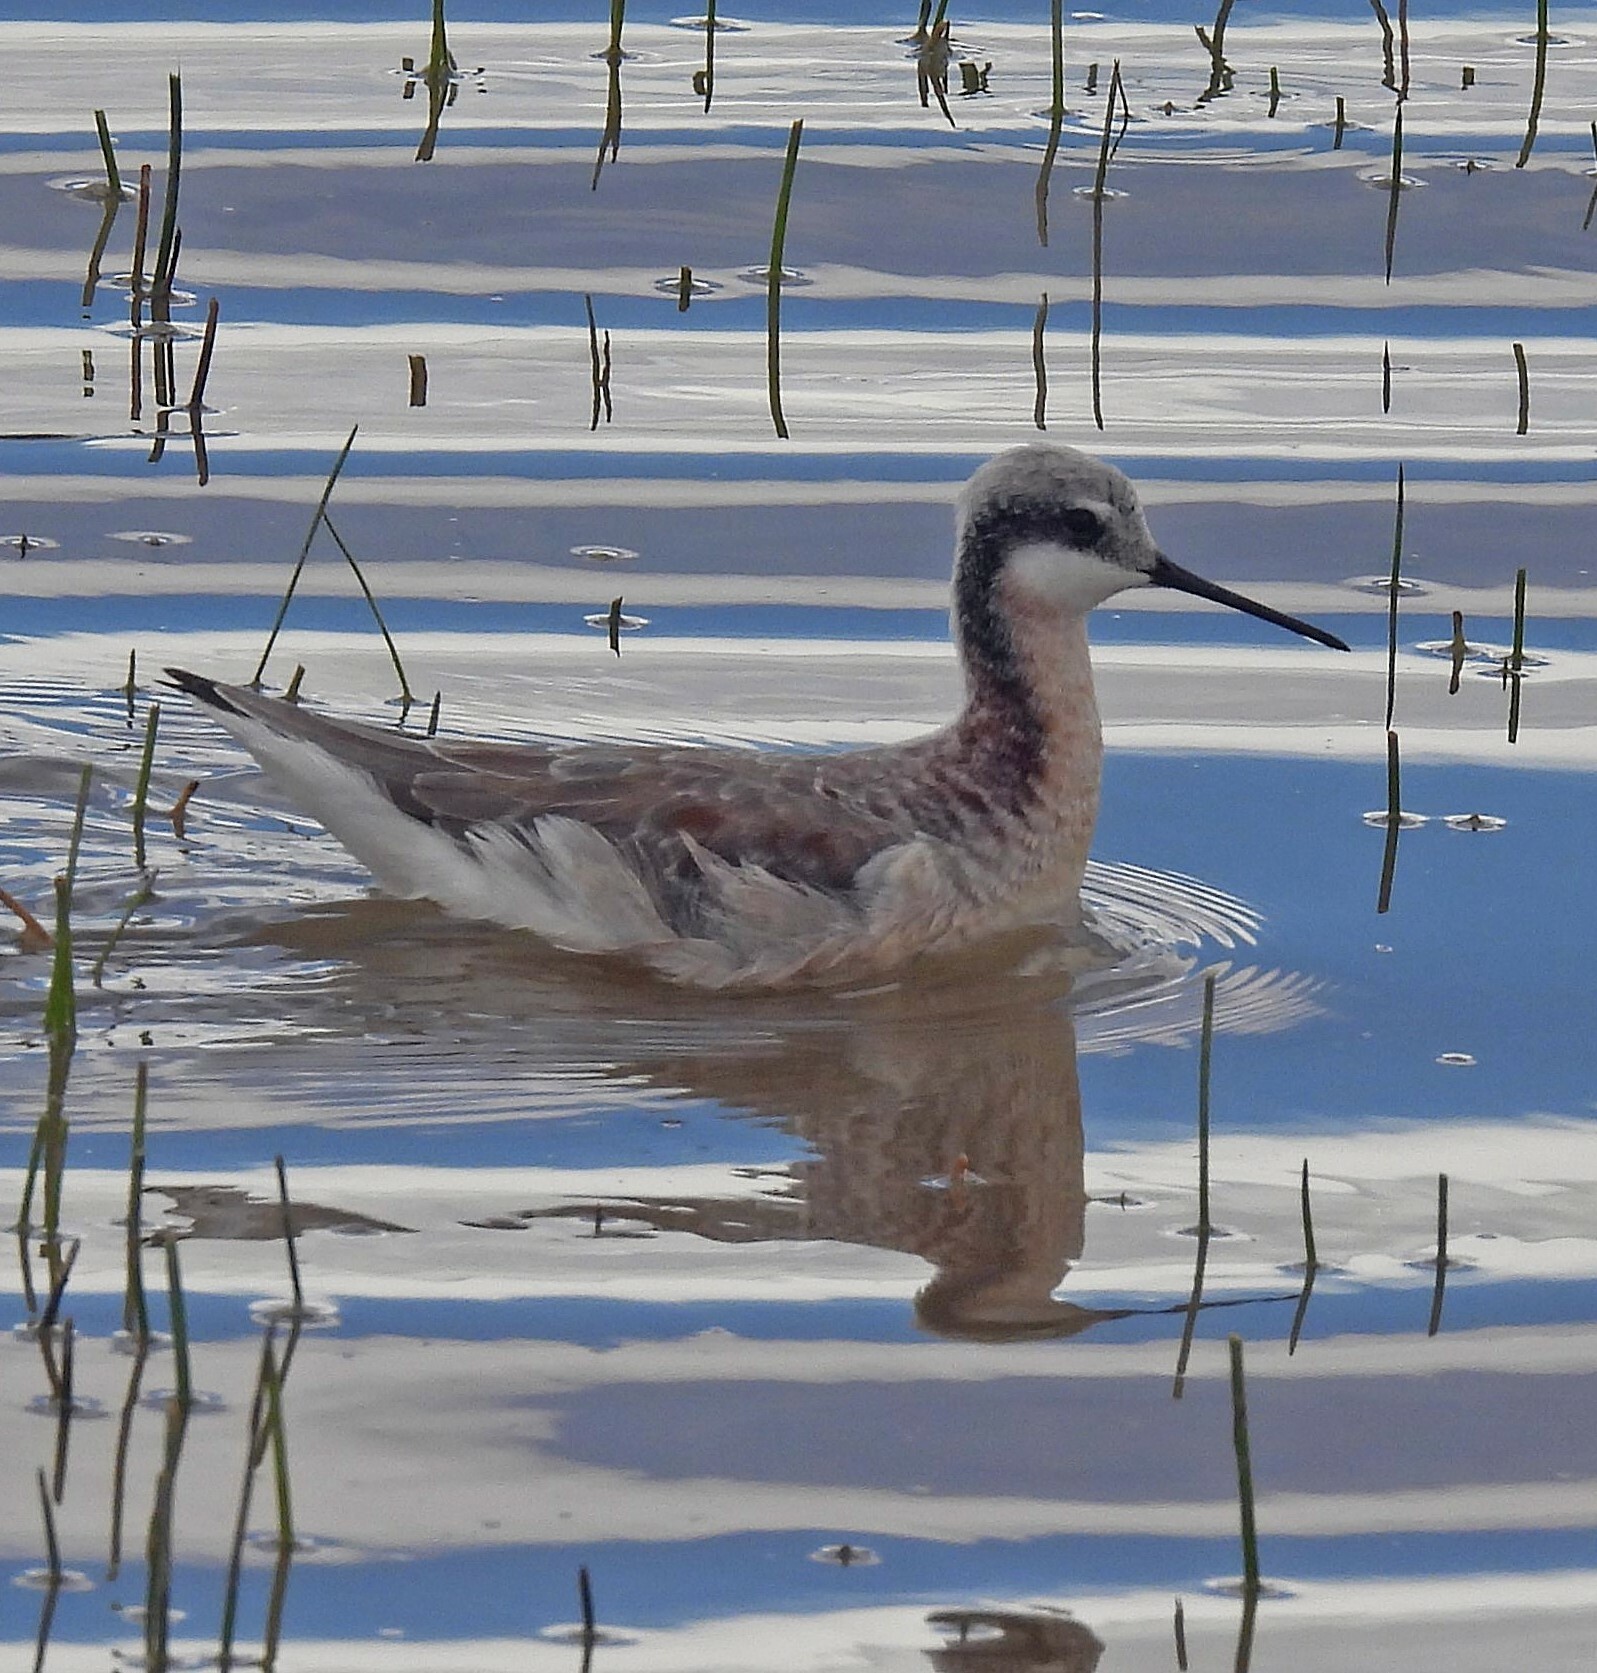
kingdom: Animalia
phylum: Chordata
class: Aves
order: Charadriiformes
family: Scolopacidae
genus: Phalaropus
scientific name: Phalaropus tricolor
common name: Wilson's phalarope
